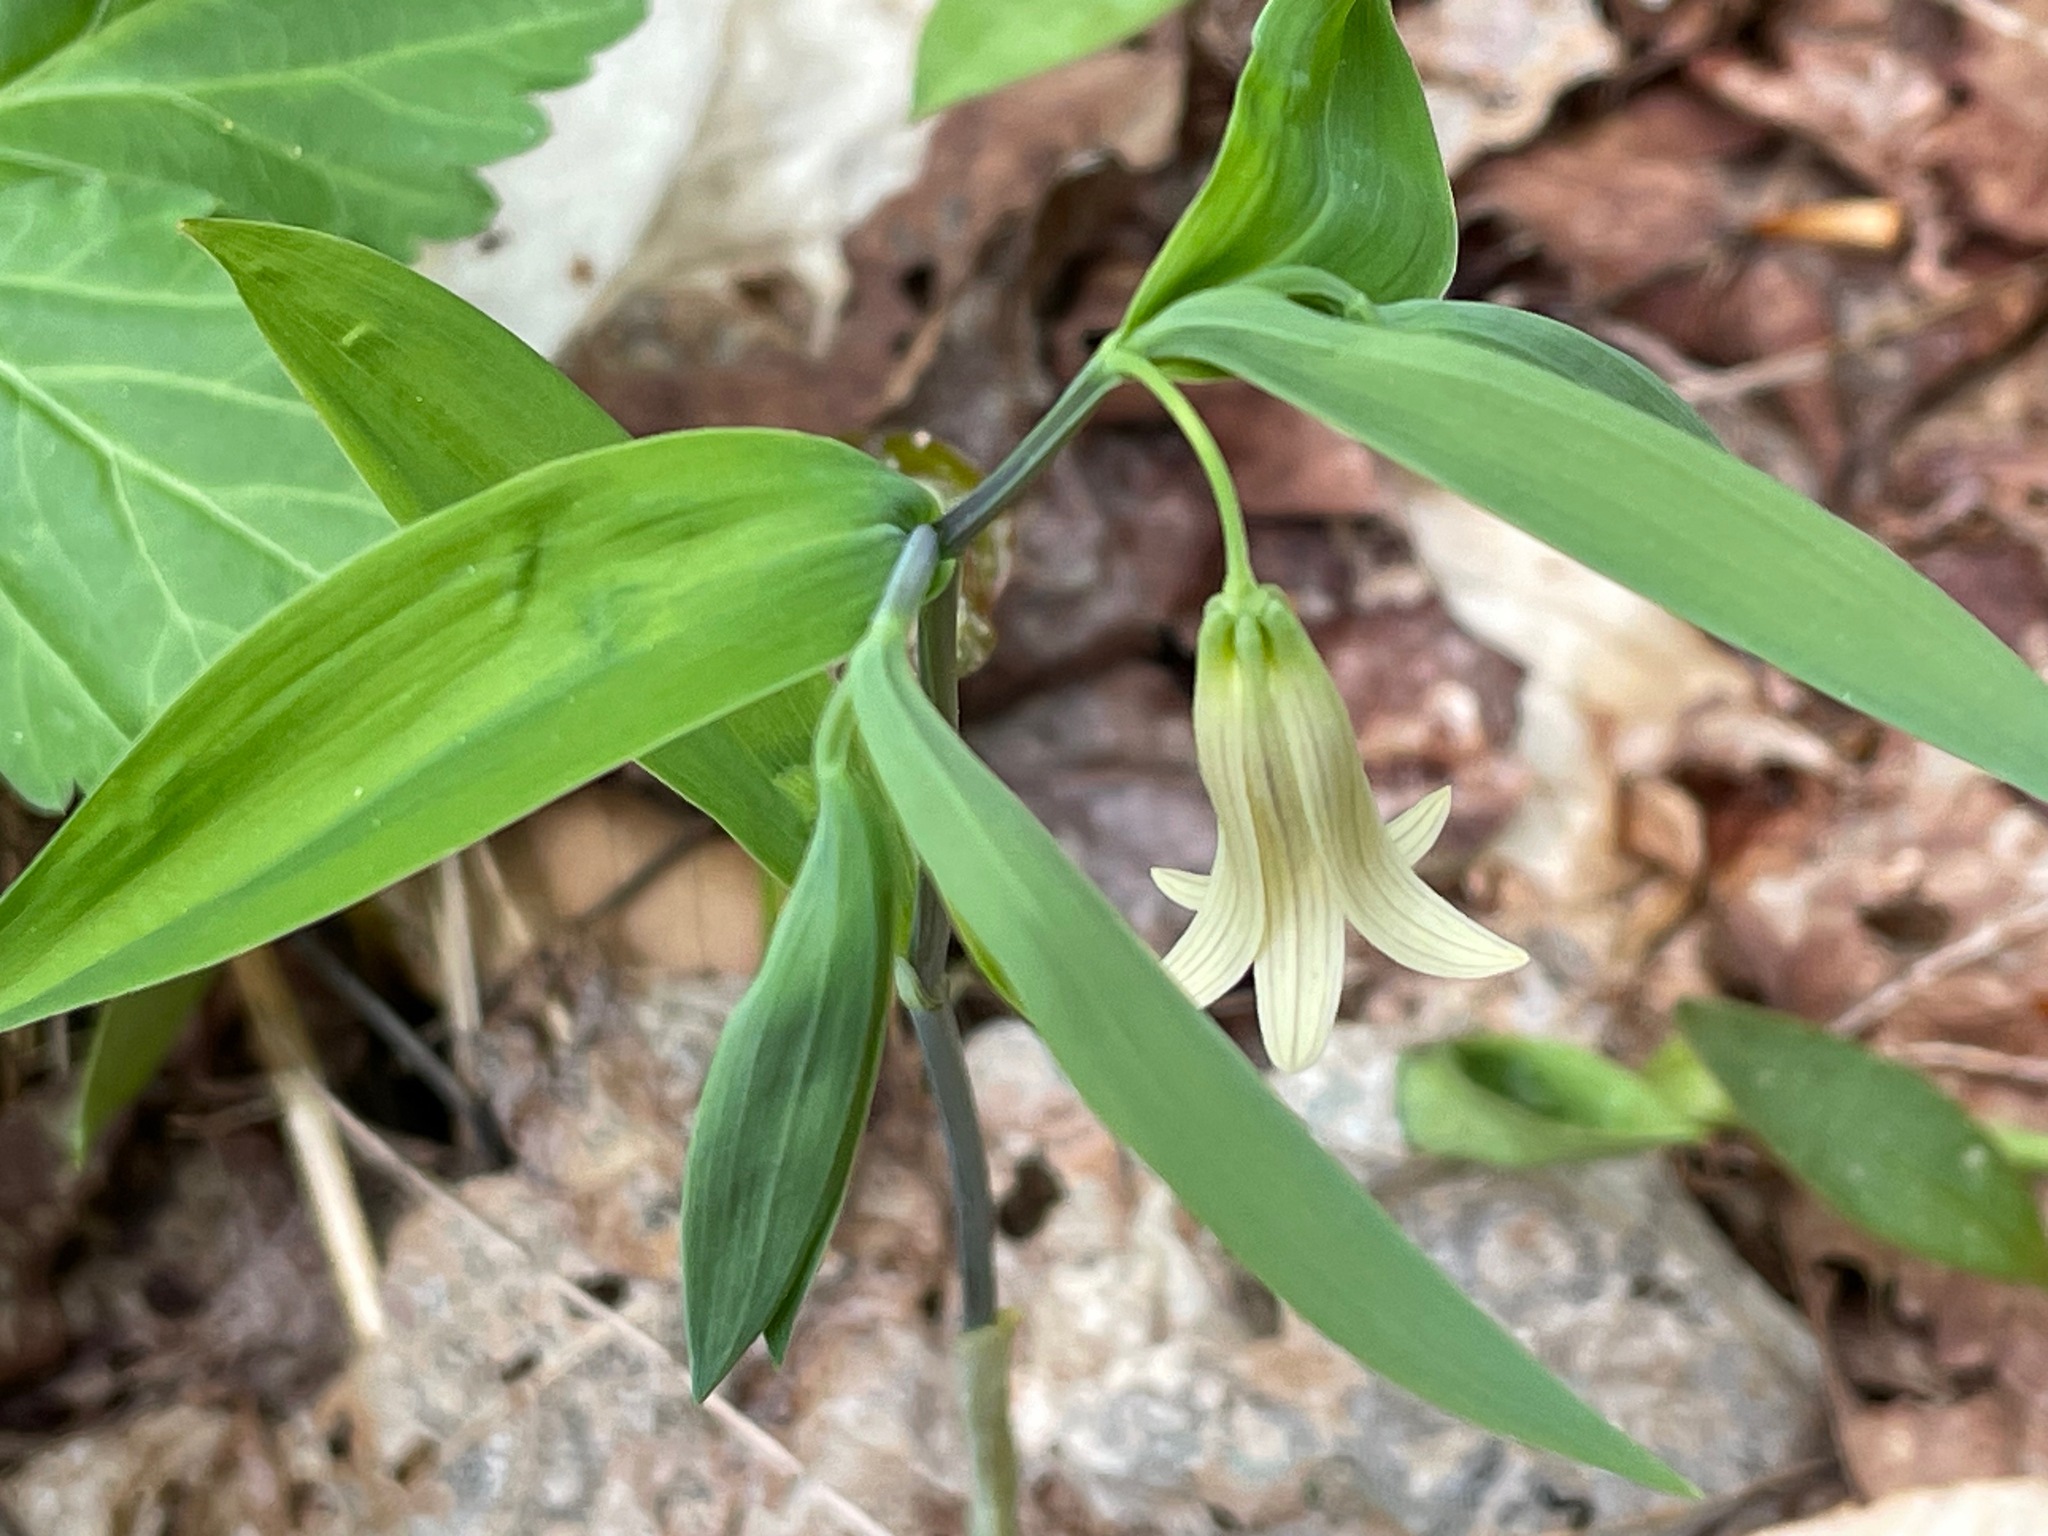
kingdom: Plantae
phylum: Tracheophyta
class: Liliopsida
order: Liliales
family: Colchicaceae
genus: Uvularia
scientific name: Uvularia sessilifolia
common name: Straw-lily
